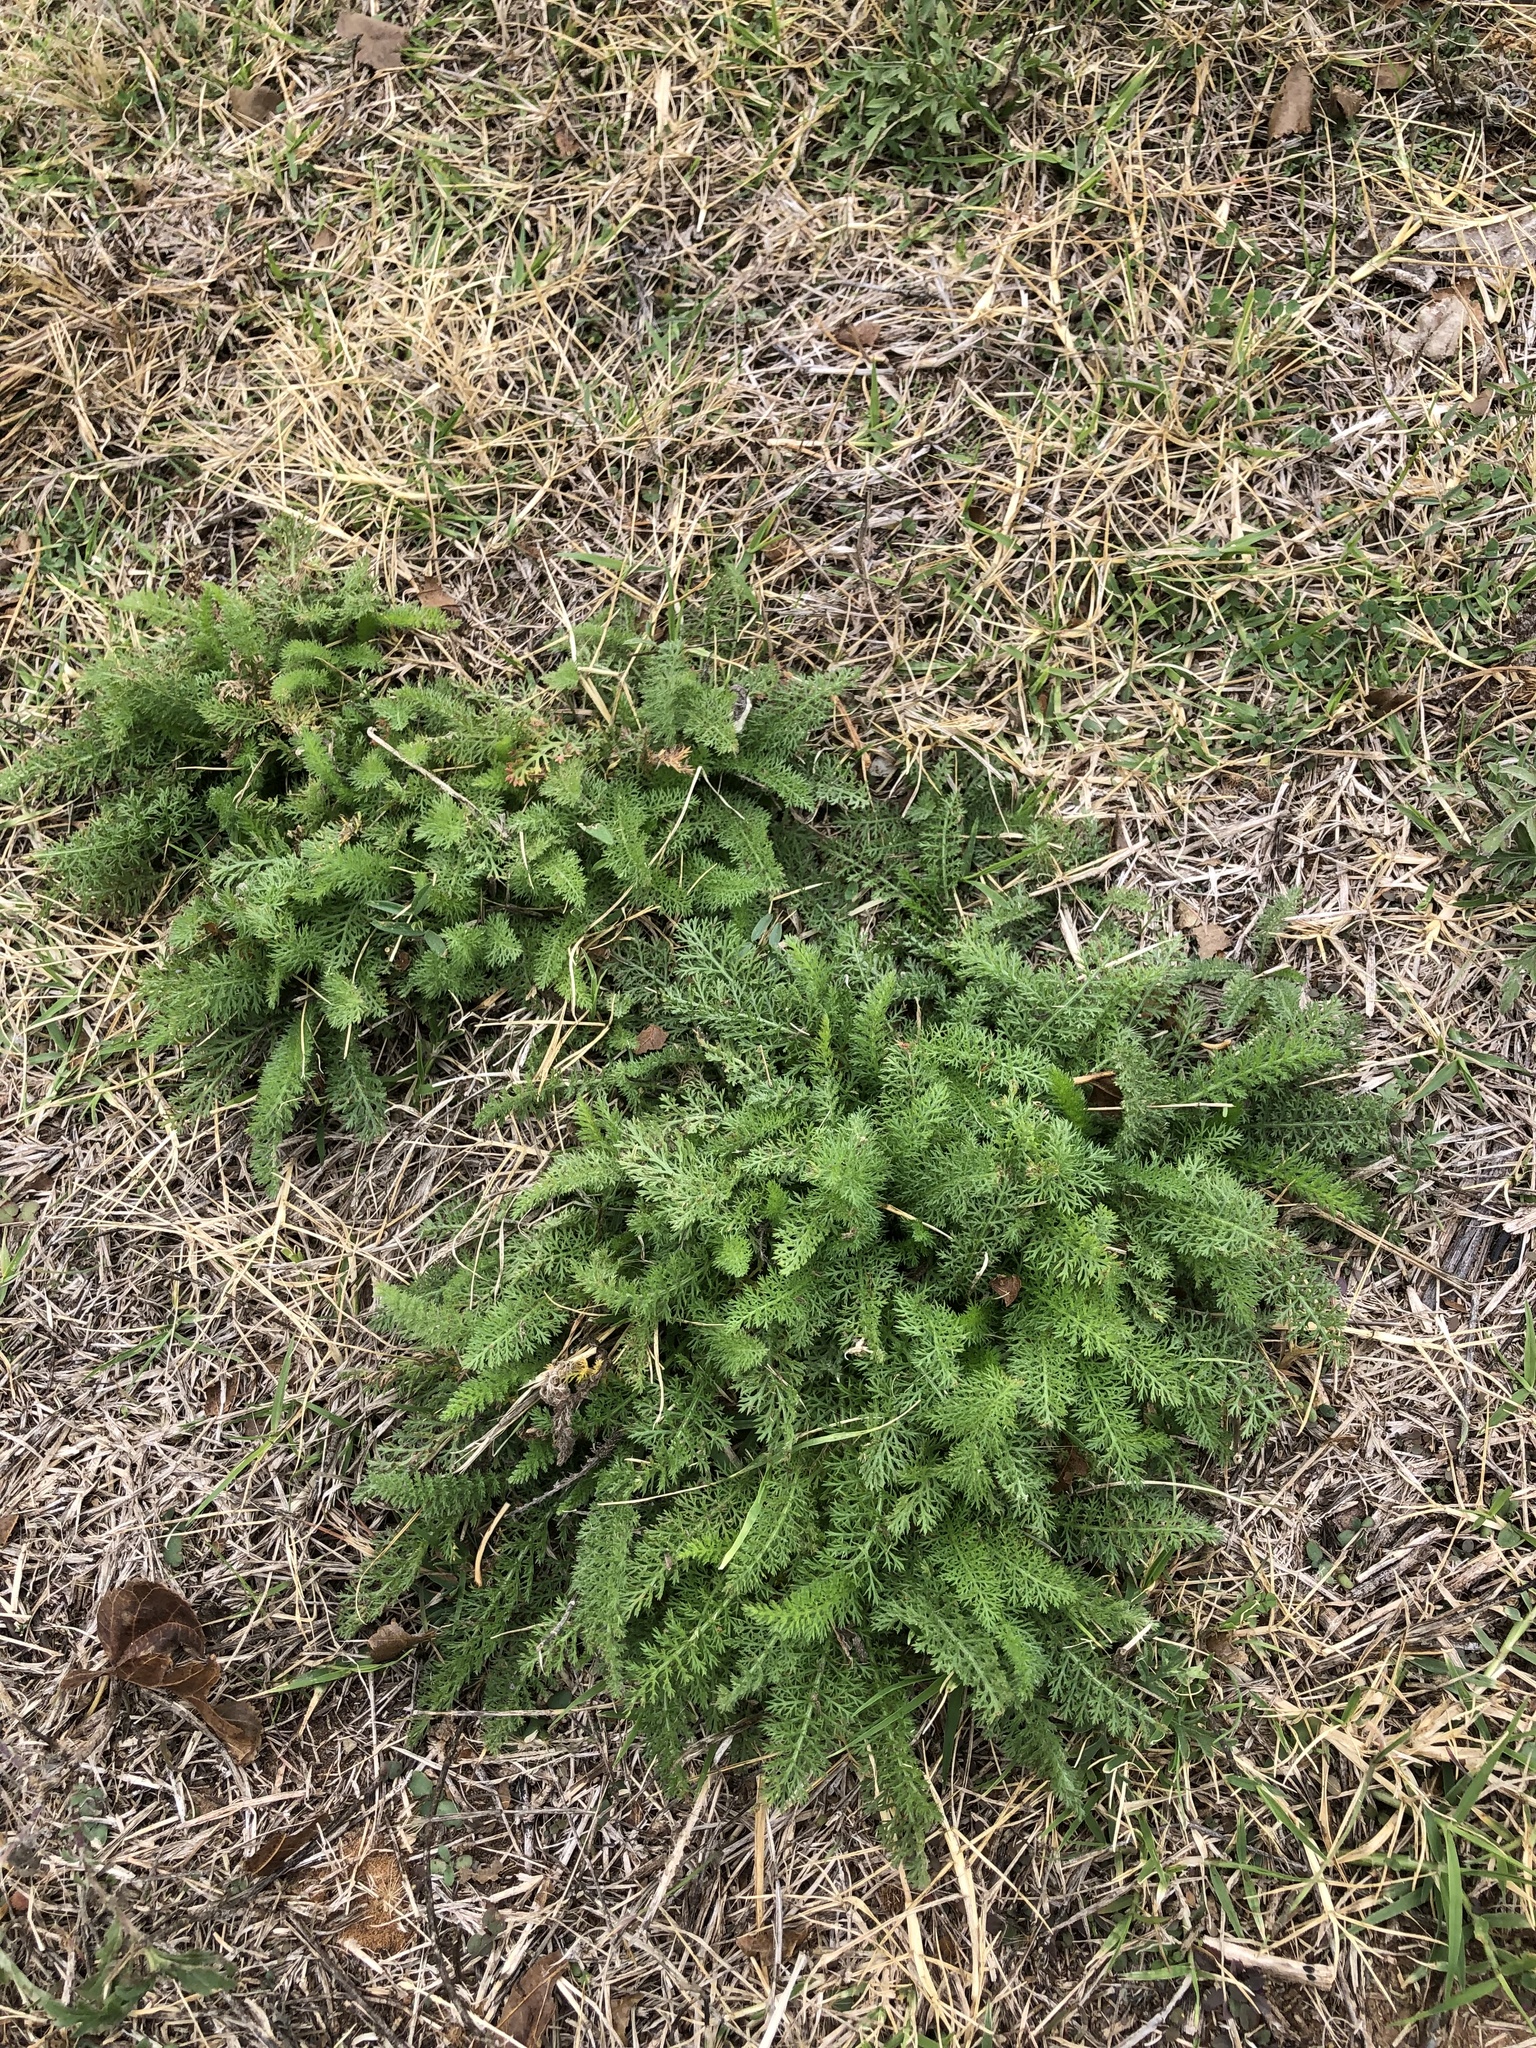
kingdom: Plantae
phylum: Tracheophyta
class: Magnoliopsida
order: Asterales
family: Asteraceae
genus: Achillea
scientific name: Achillea millefolium
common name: Yarrow
